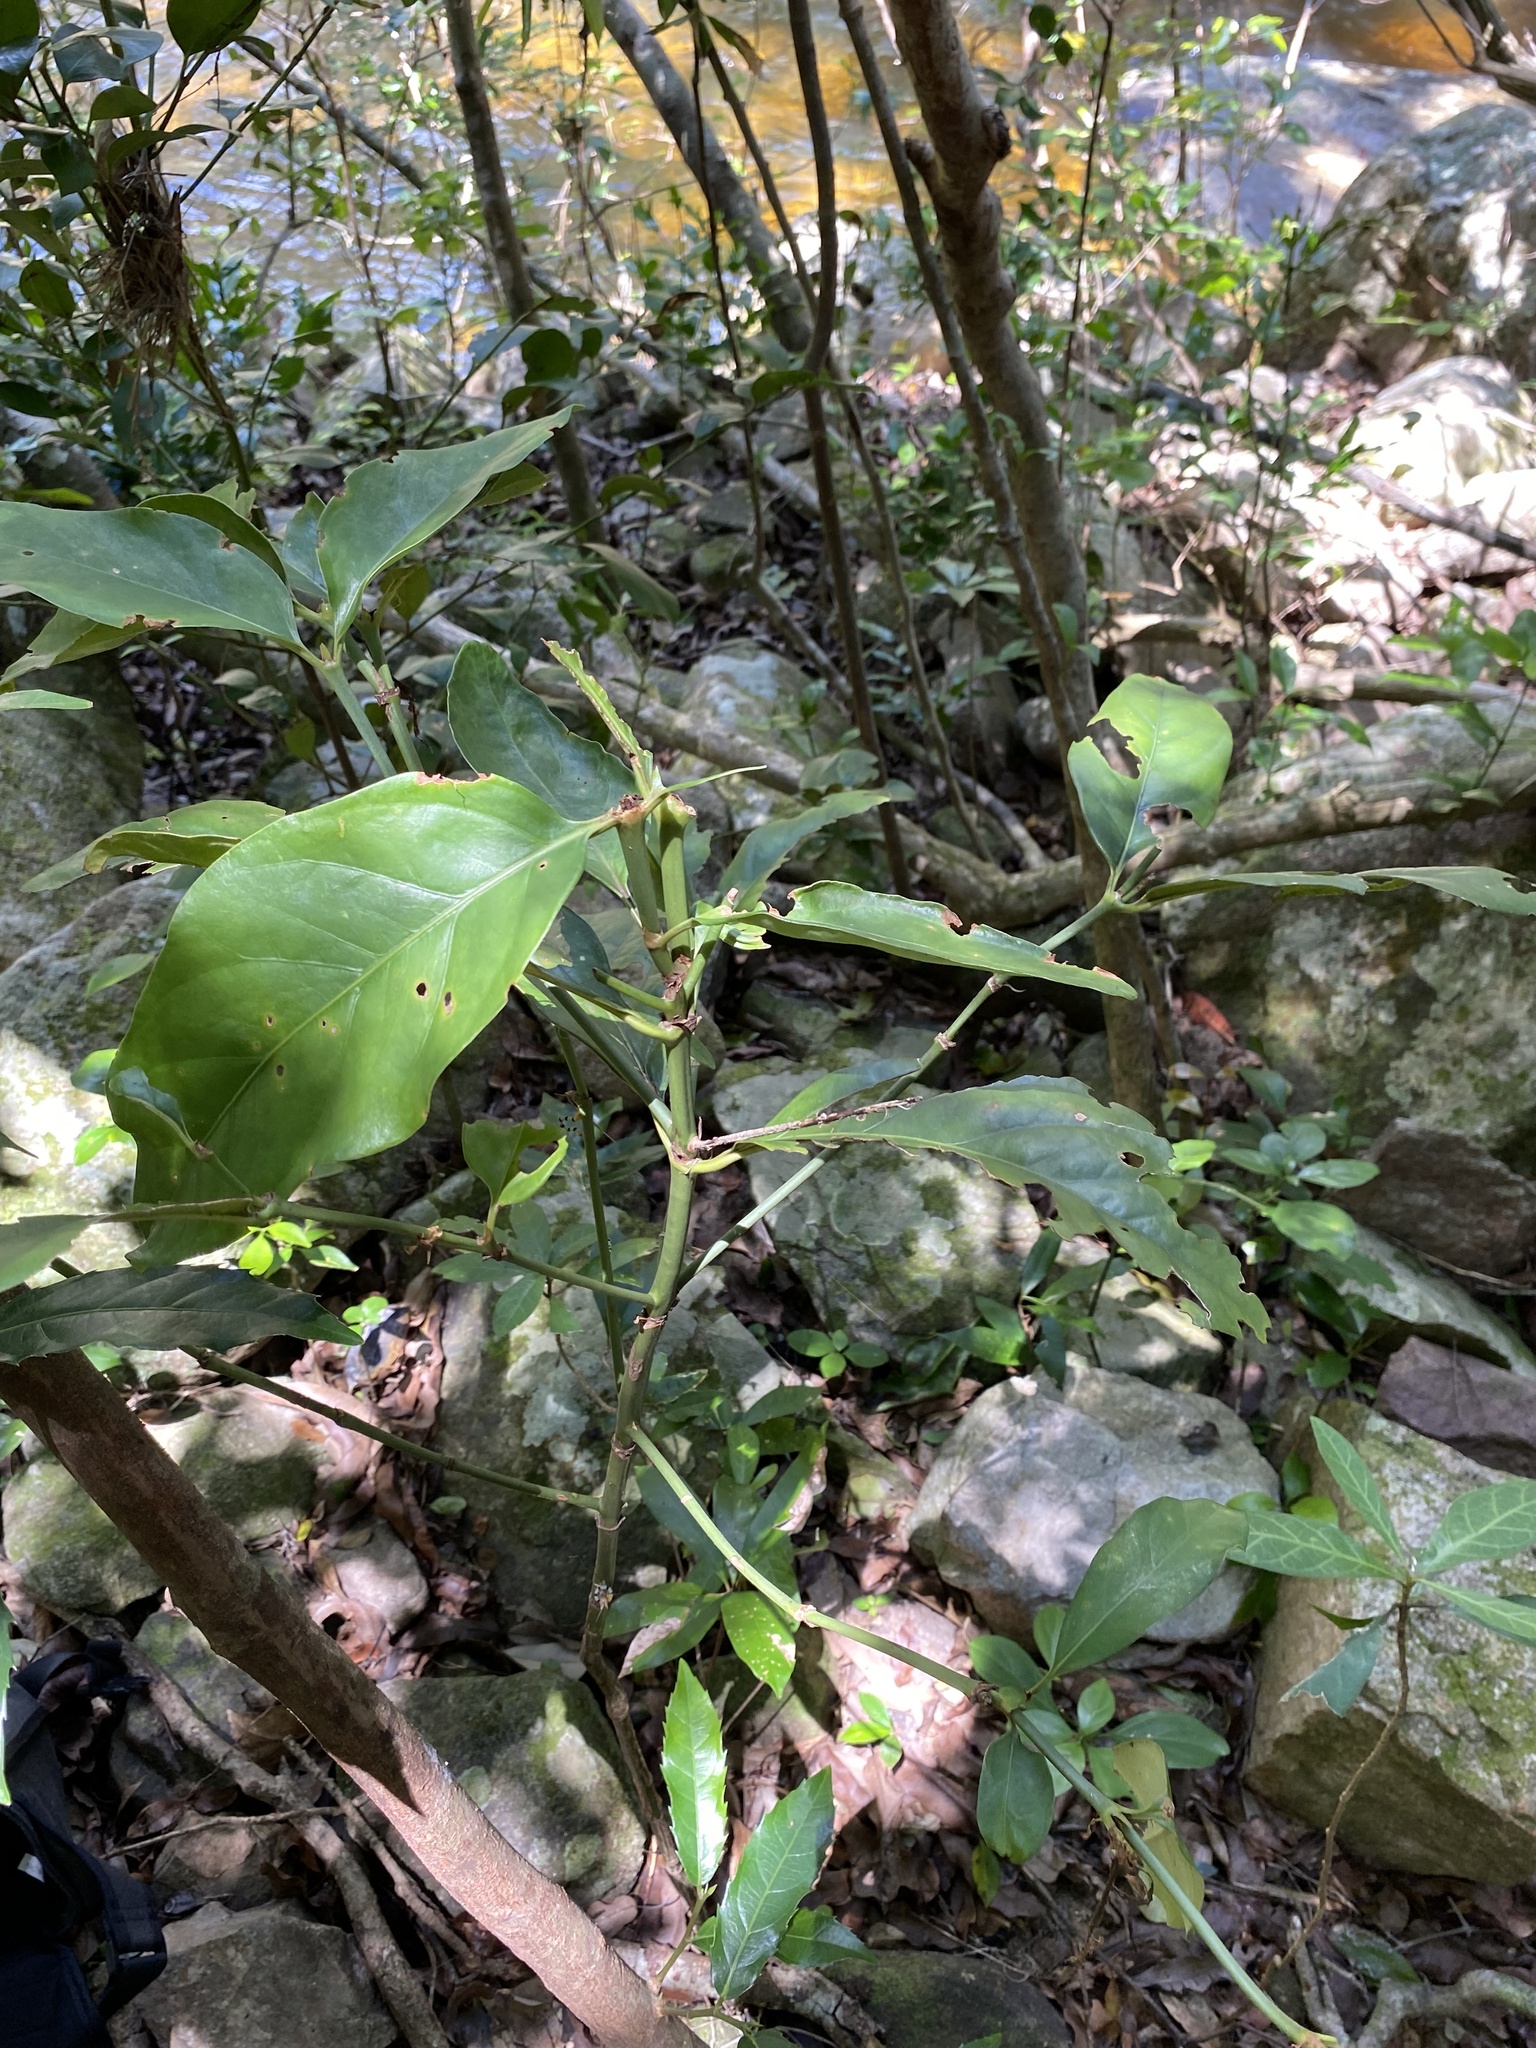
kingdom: Plantae
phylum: Tracheophyta
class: Magnoliopsida
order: Gentianales
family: Rubiaceae
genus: Mitriostigma
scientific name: Mitriostigma axillare
